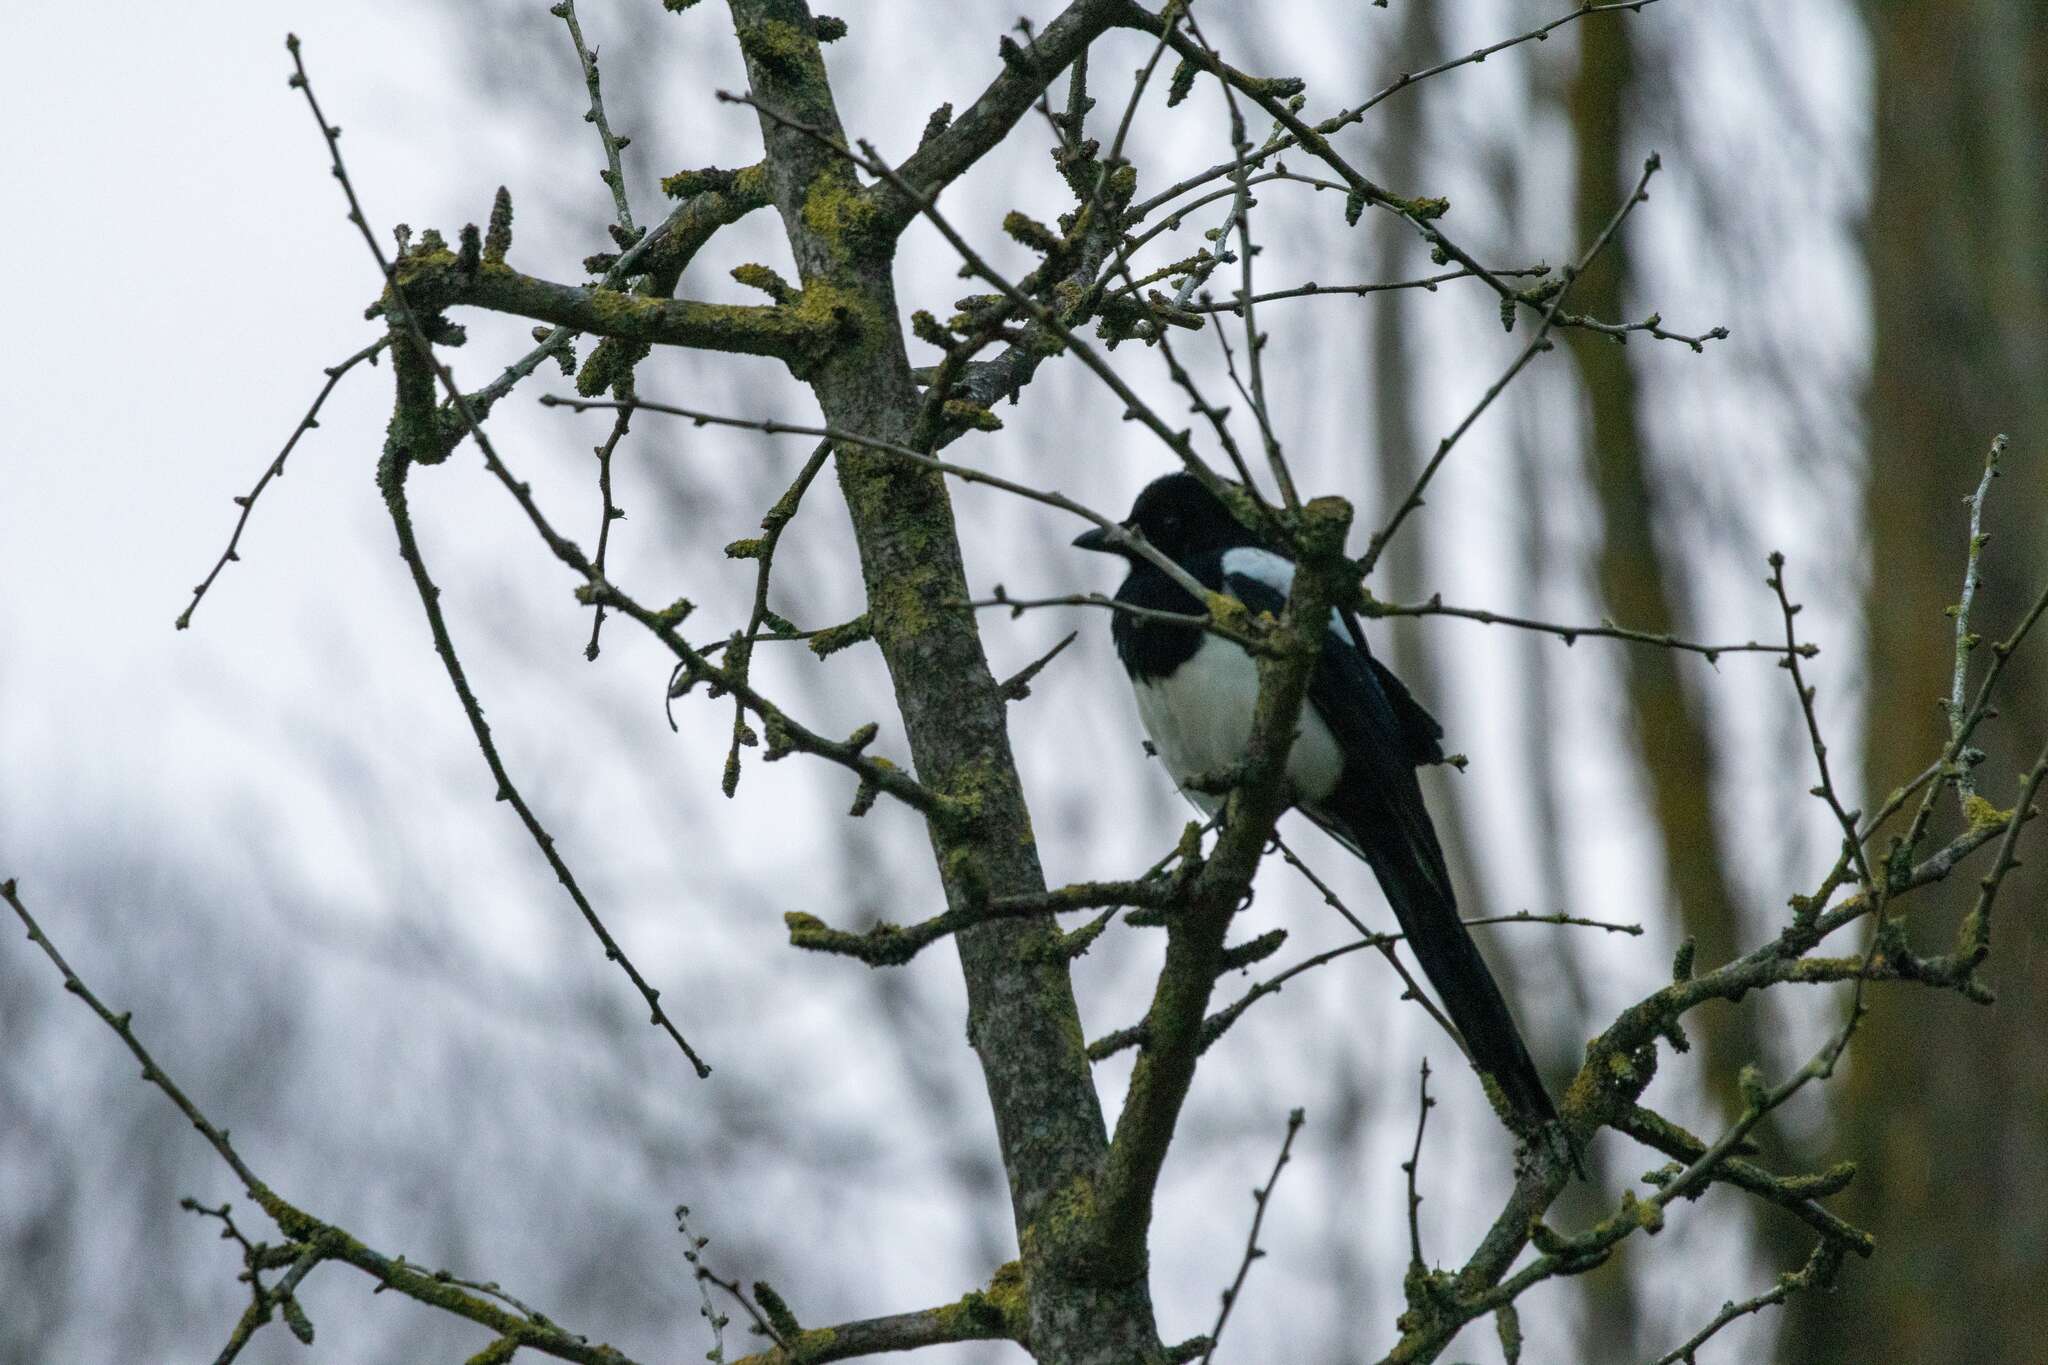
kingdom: Animalia
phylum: Chordata
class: Aves
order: Passeriformes
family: Corvidae
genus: Pica
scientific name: Pica pica
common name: Eurasian magpie
